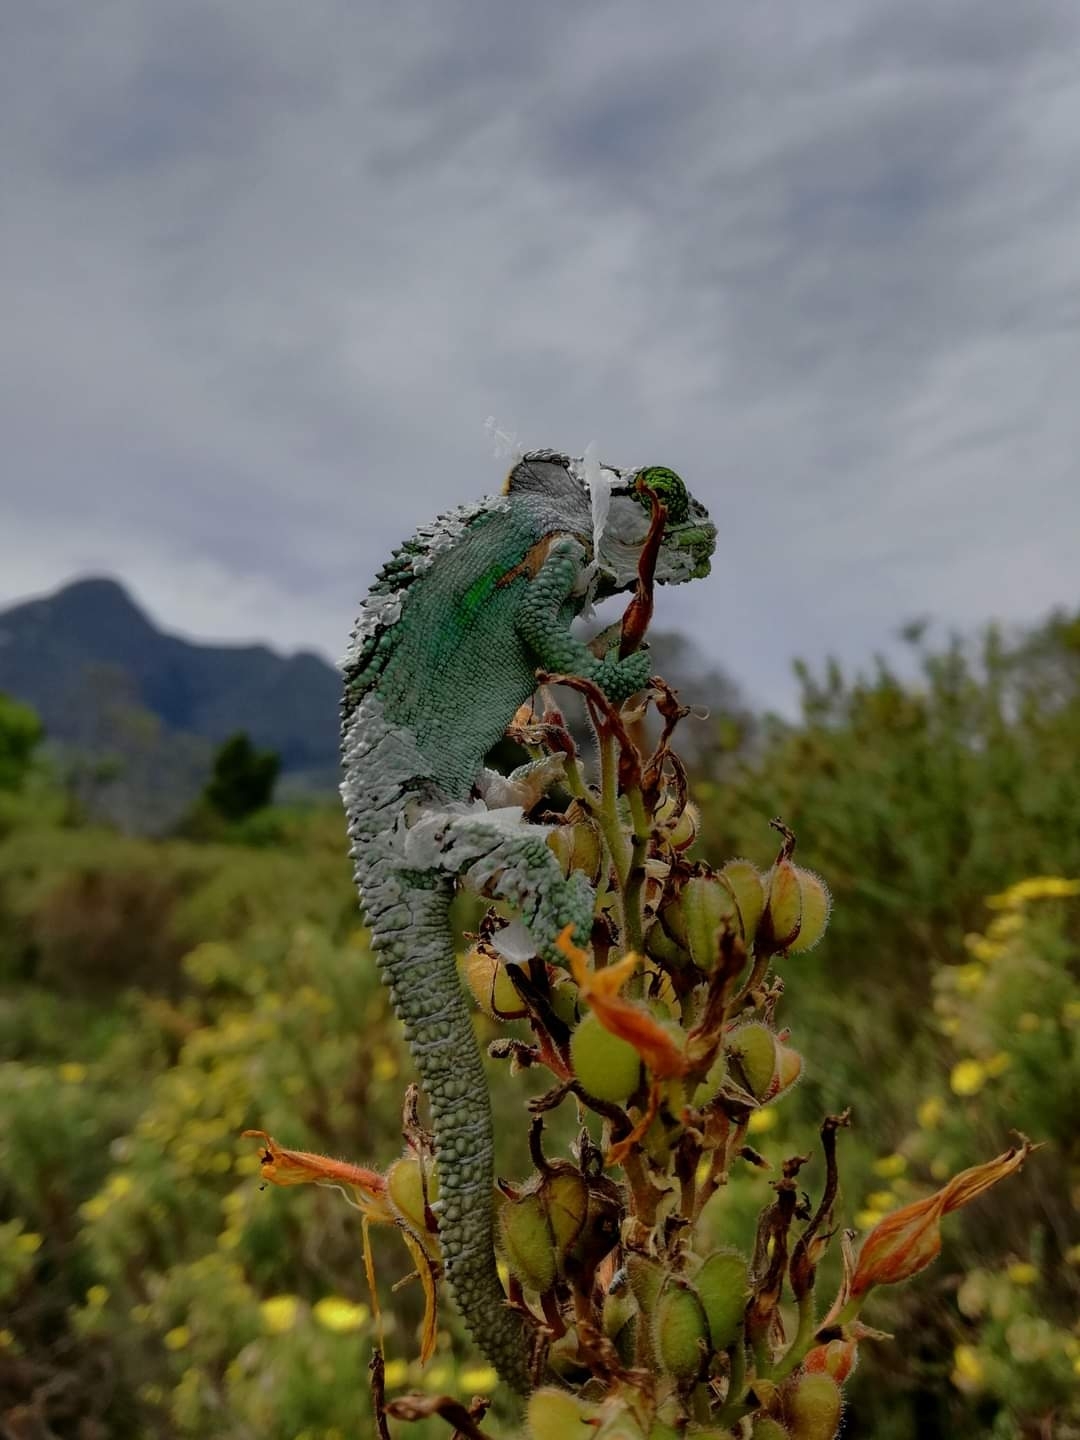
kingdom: Animalia
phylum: Chordata
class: Squamata
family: Chamaeleonidae
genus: Bradypodion
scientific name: Bradypodion damaranum
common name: Knysna dwarf chameleon
